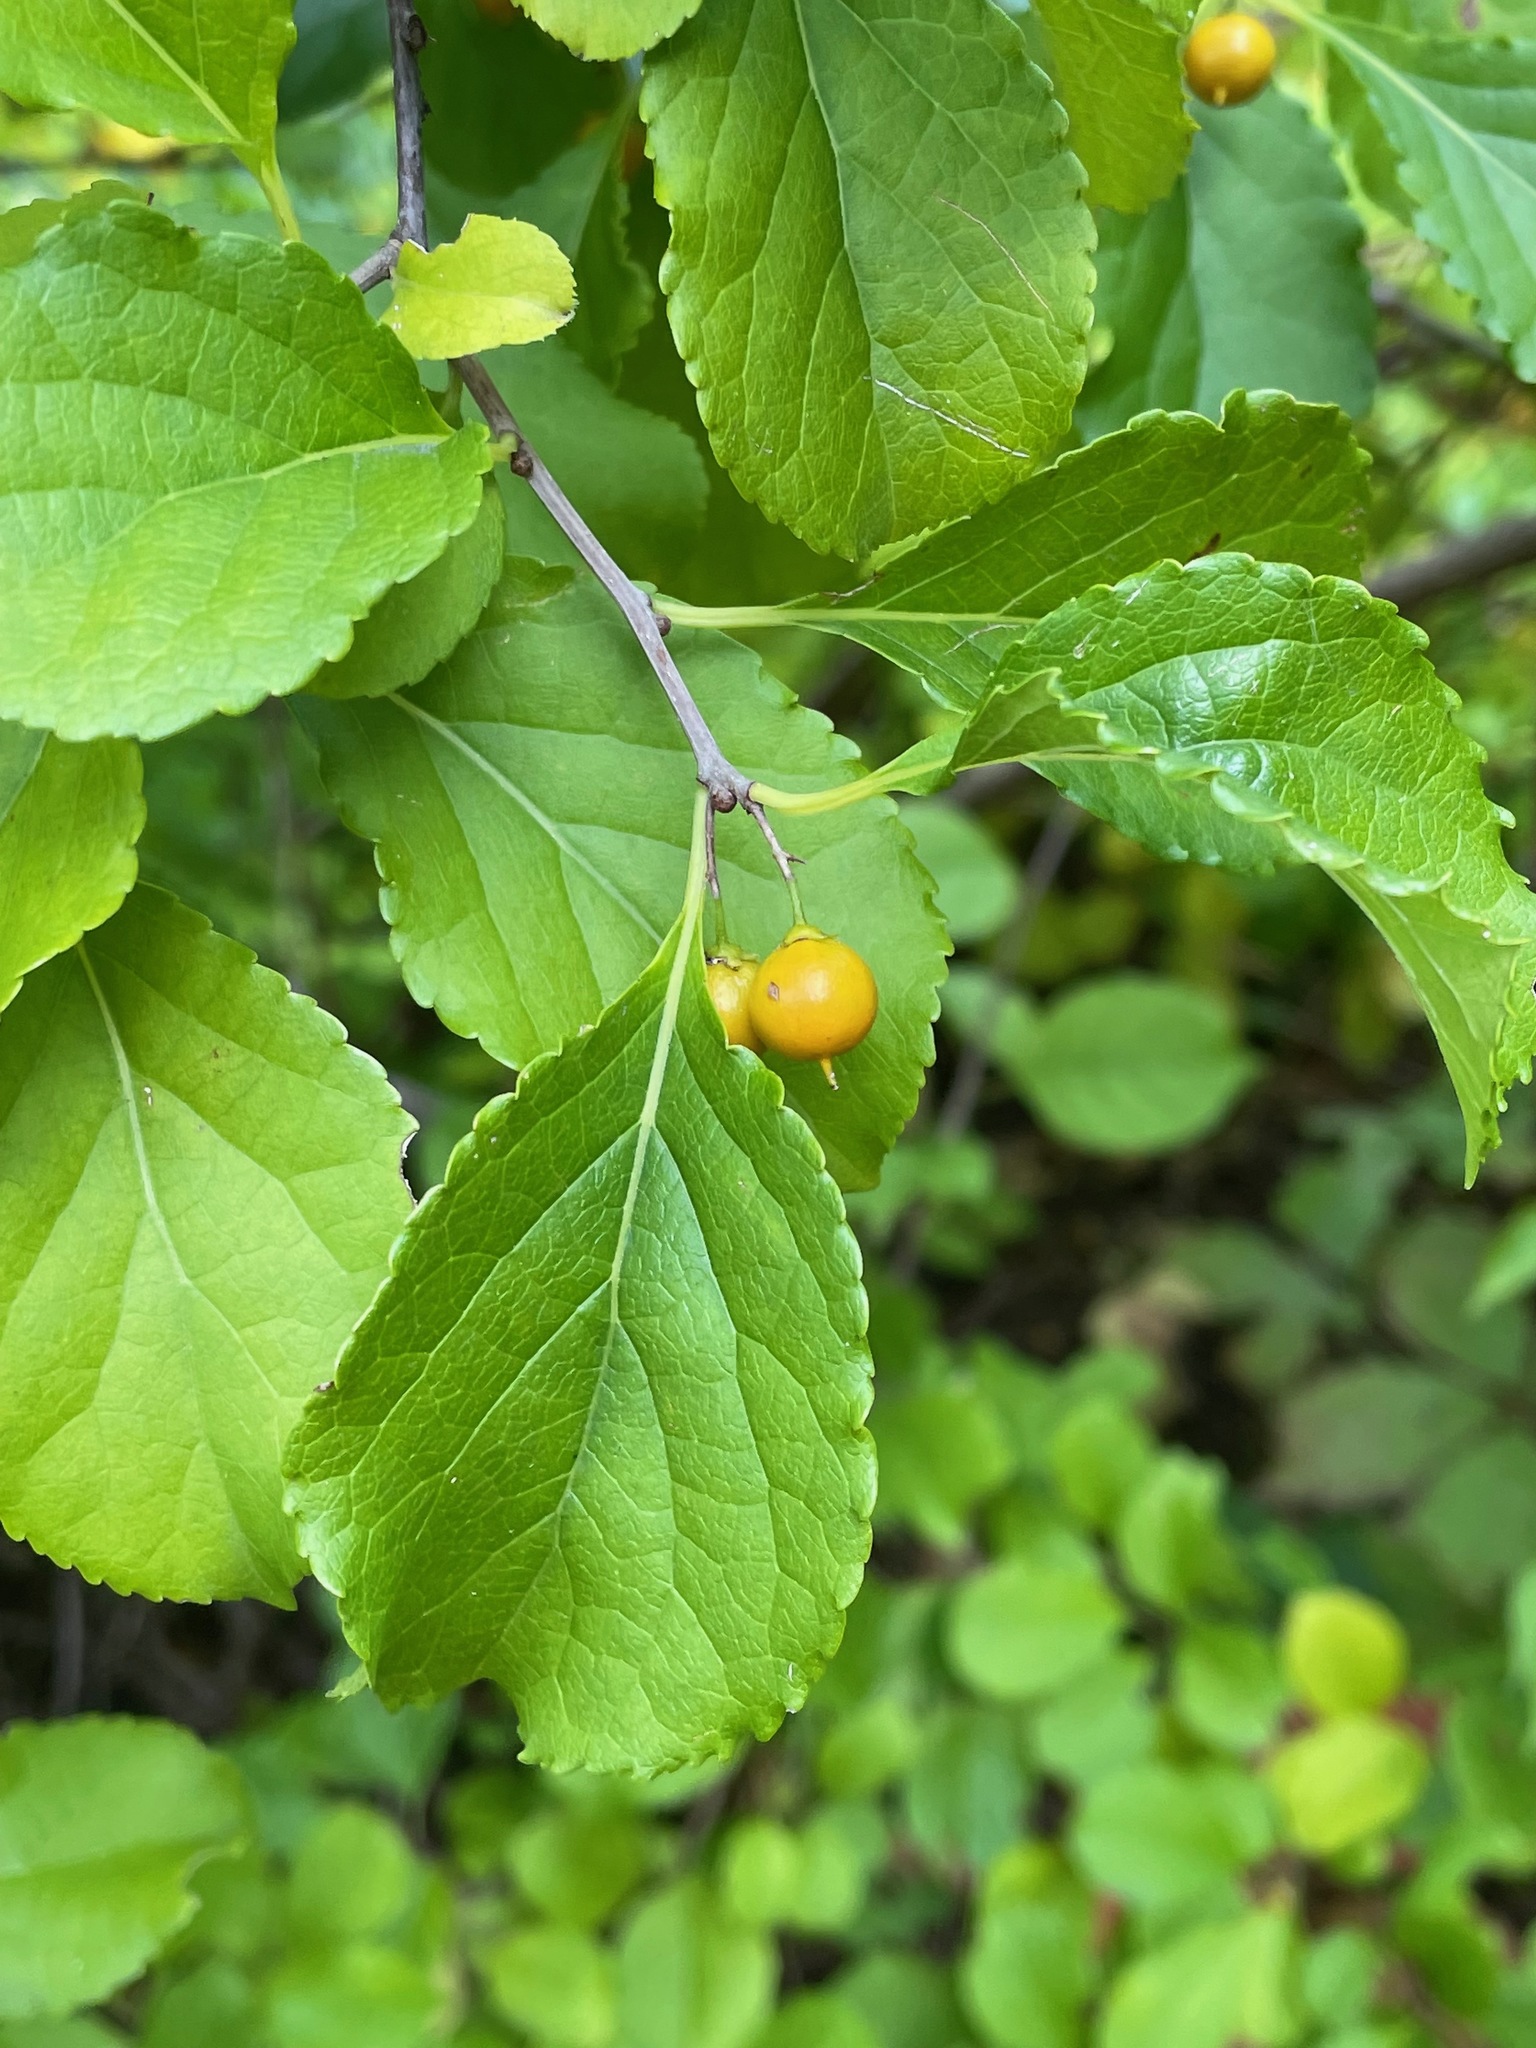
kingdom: Plantae
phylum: Tracheophyta
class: Magnoliopsida
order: Celastrales
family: Celastraceae
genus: Celastrus
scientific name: Celastrus orbiculatus
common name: Oriental bittersweet
